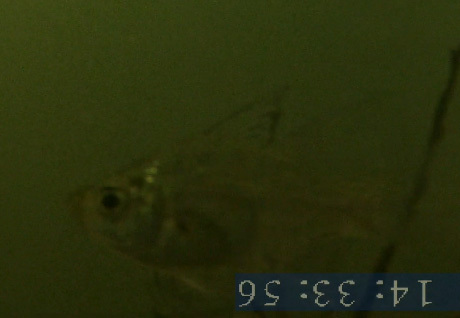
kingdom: Animalia
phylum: Chordata
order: Perciformes
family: Ambassidae
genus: Ambassis
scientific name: Ambassis macleayi
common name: Macleay's glass perchlet
